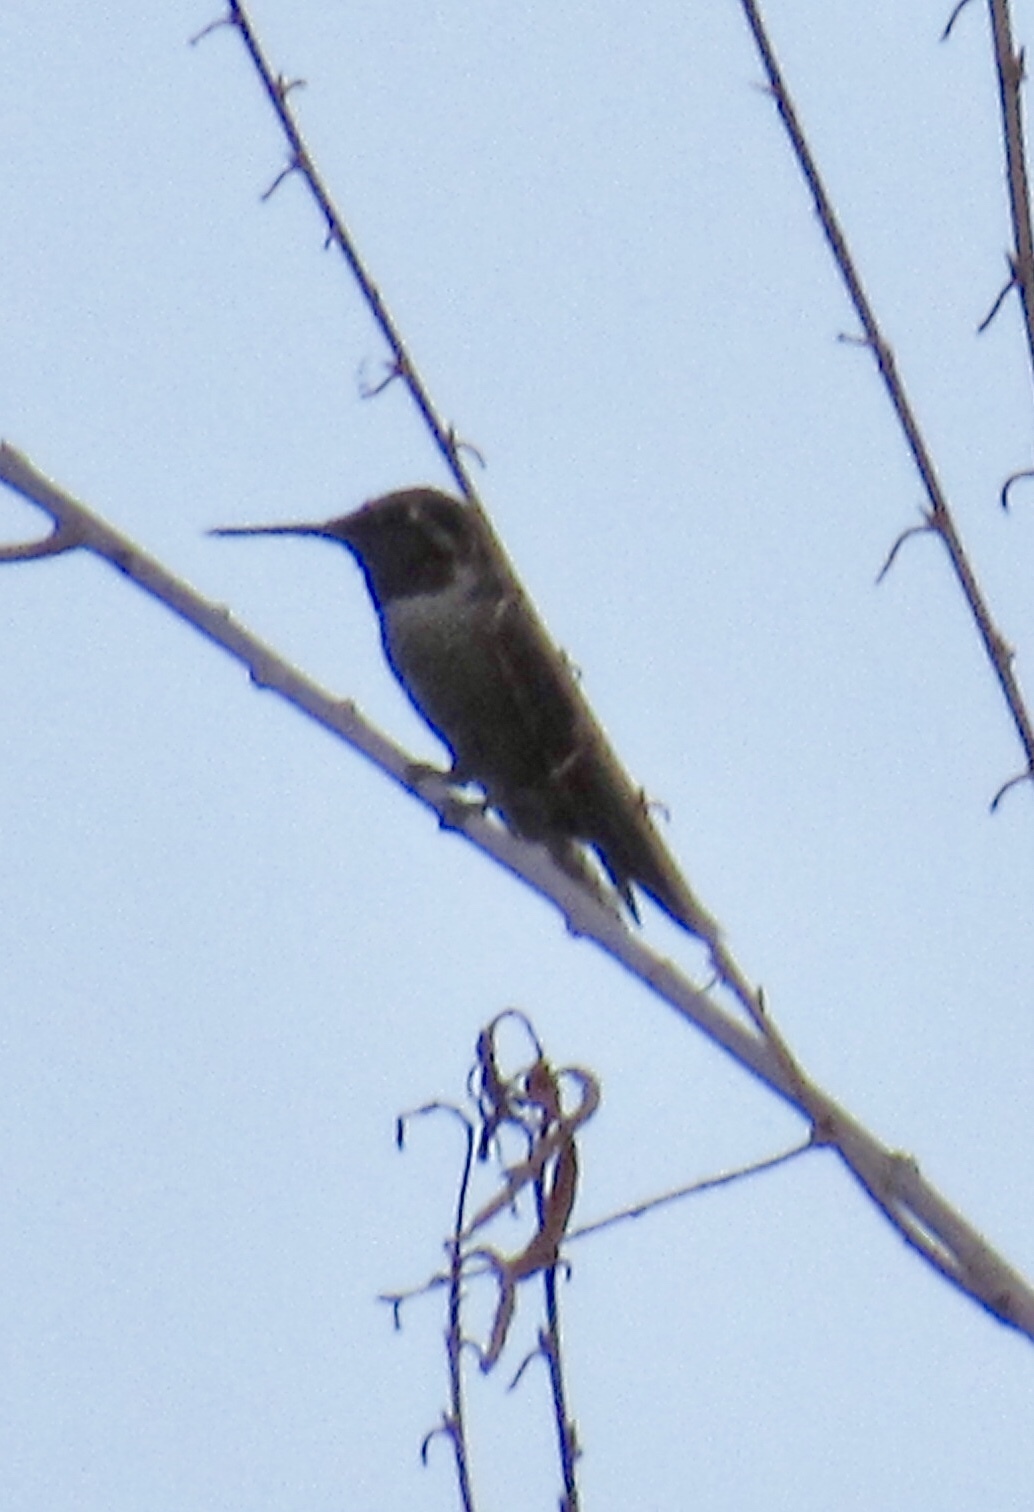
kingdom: Animalia
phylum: Chordata
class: Aves
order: Apodiformes
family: Trochilidae
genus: Calypte
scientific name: Calypte anna
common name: Anna's hummingbird
